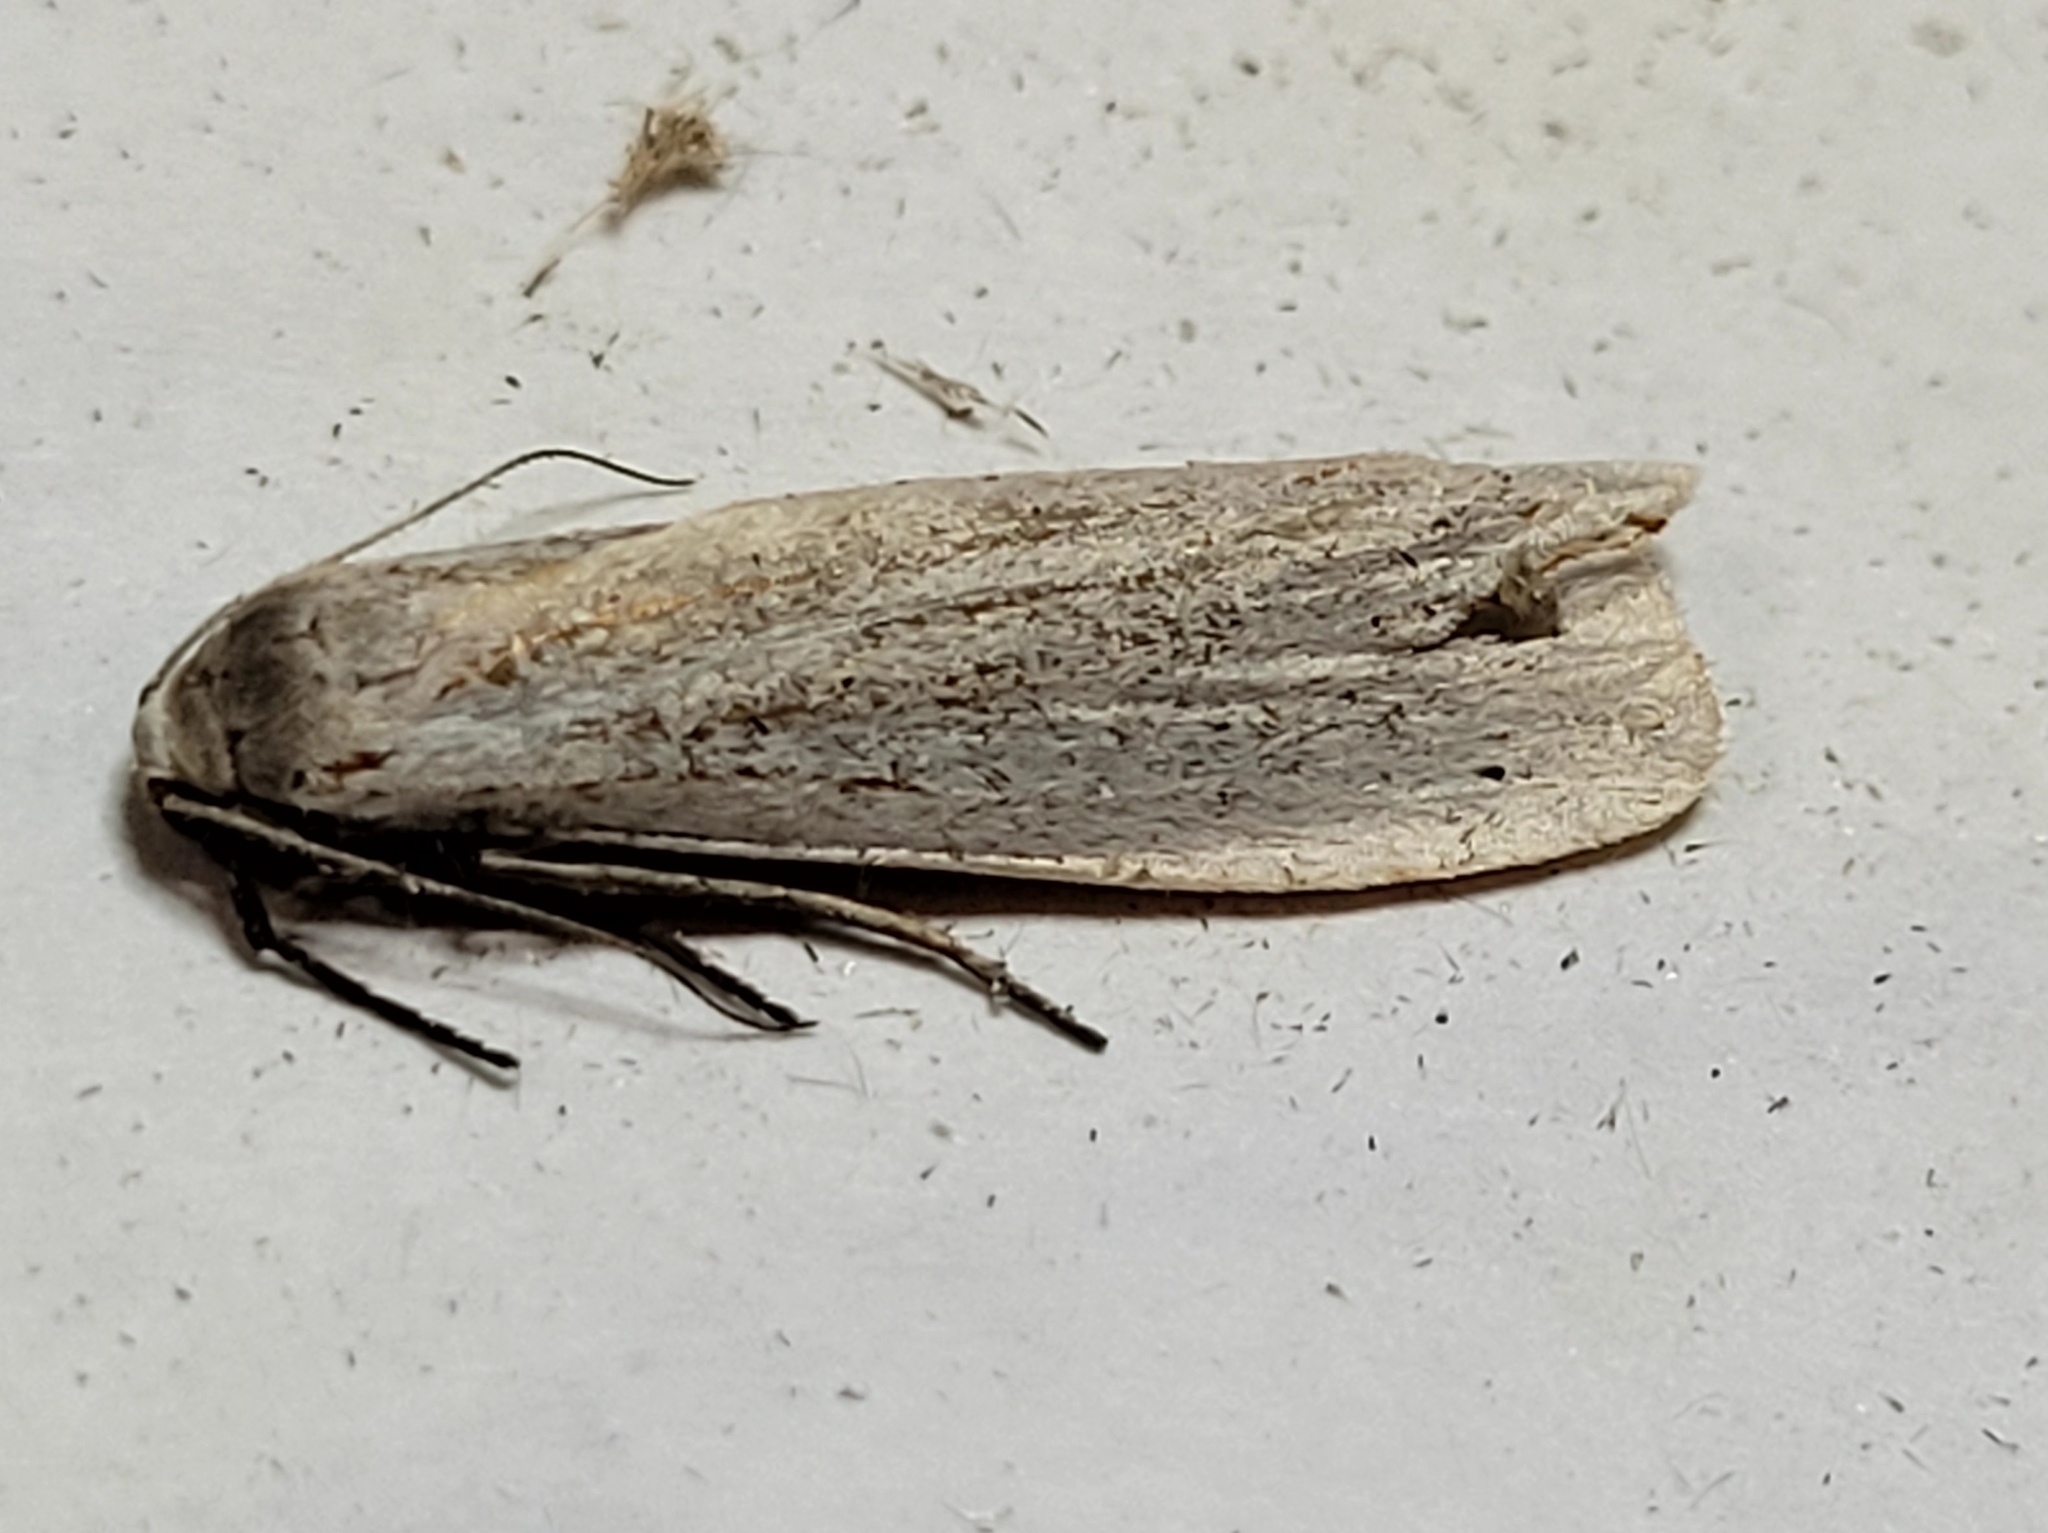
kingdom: Animalia
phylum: Arthropoda
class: Insecta
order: Lepidoptera
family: Erebidae
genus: Crambidia
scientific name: Crambidia casta
